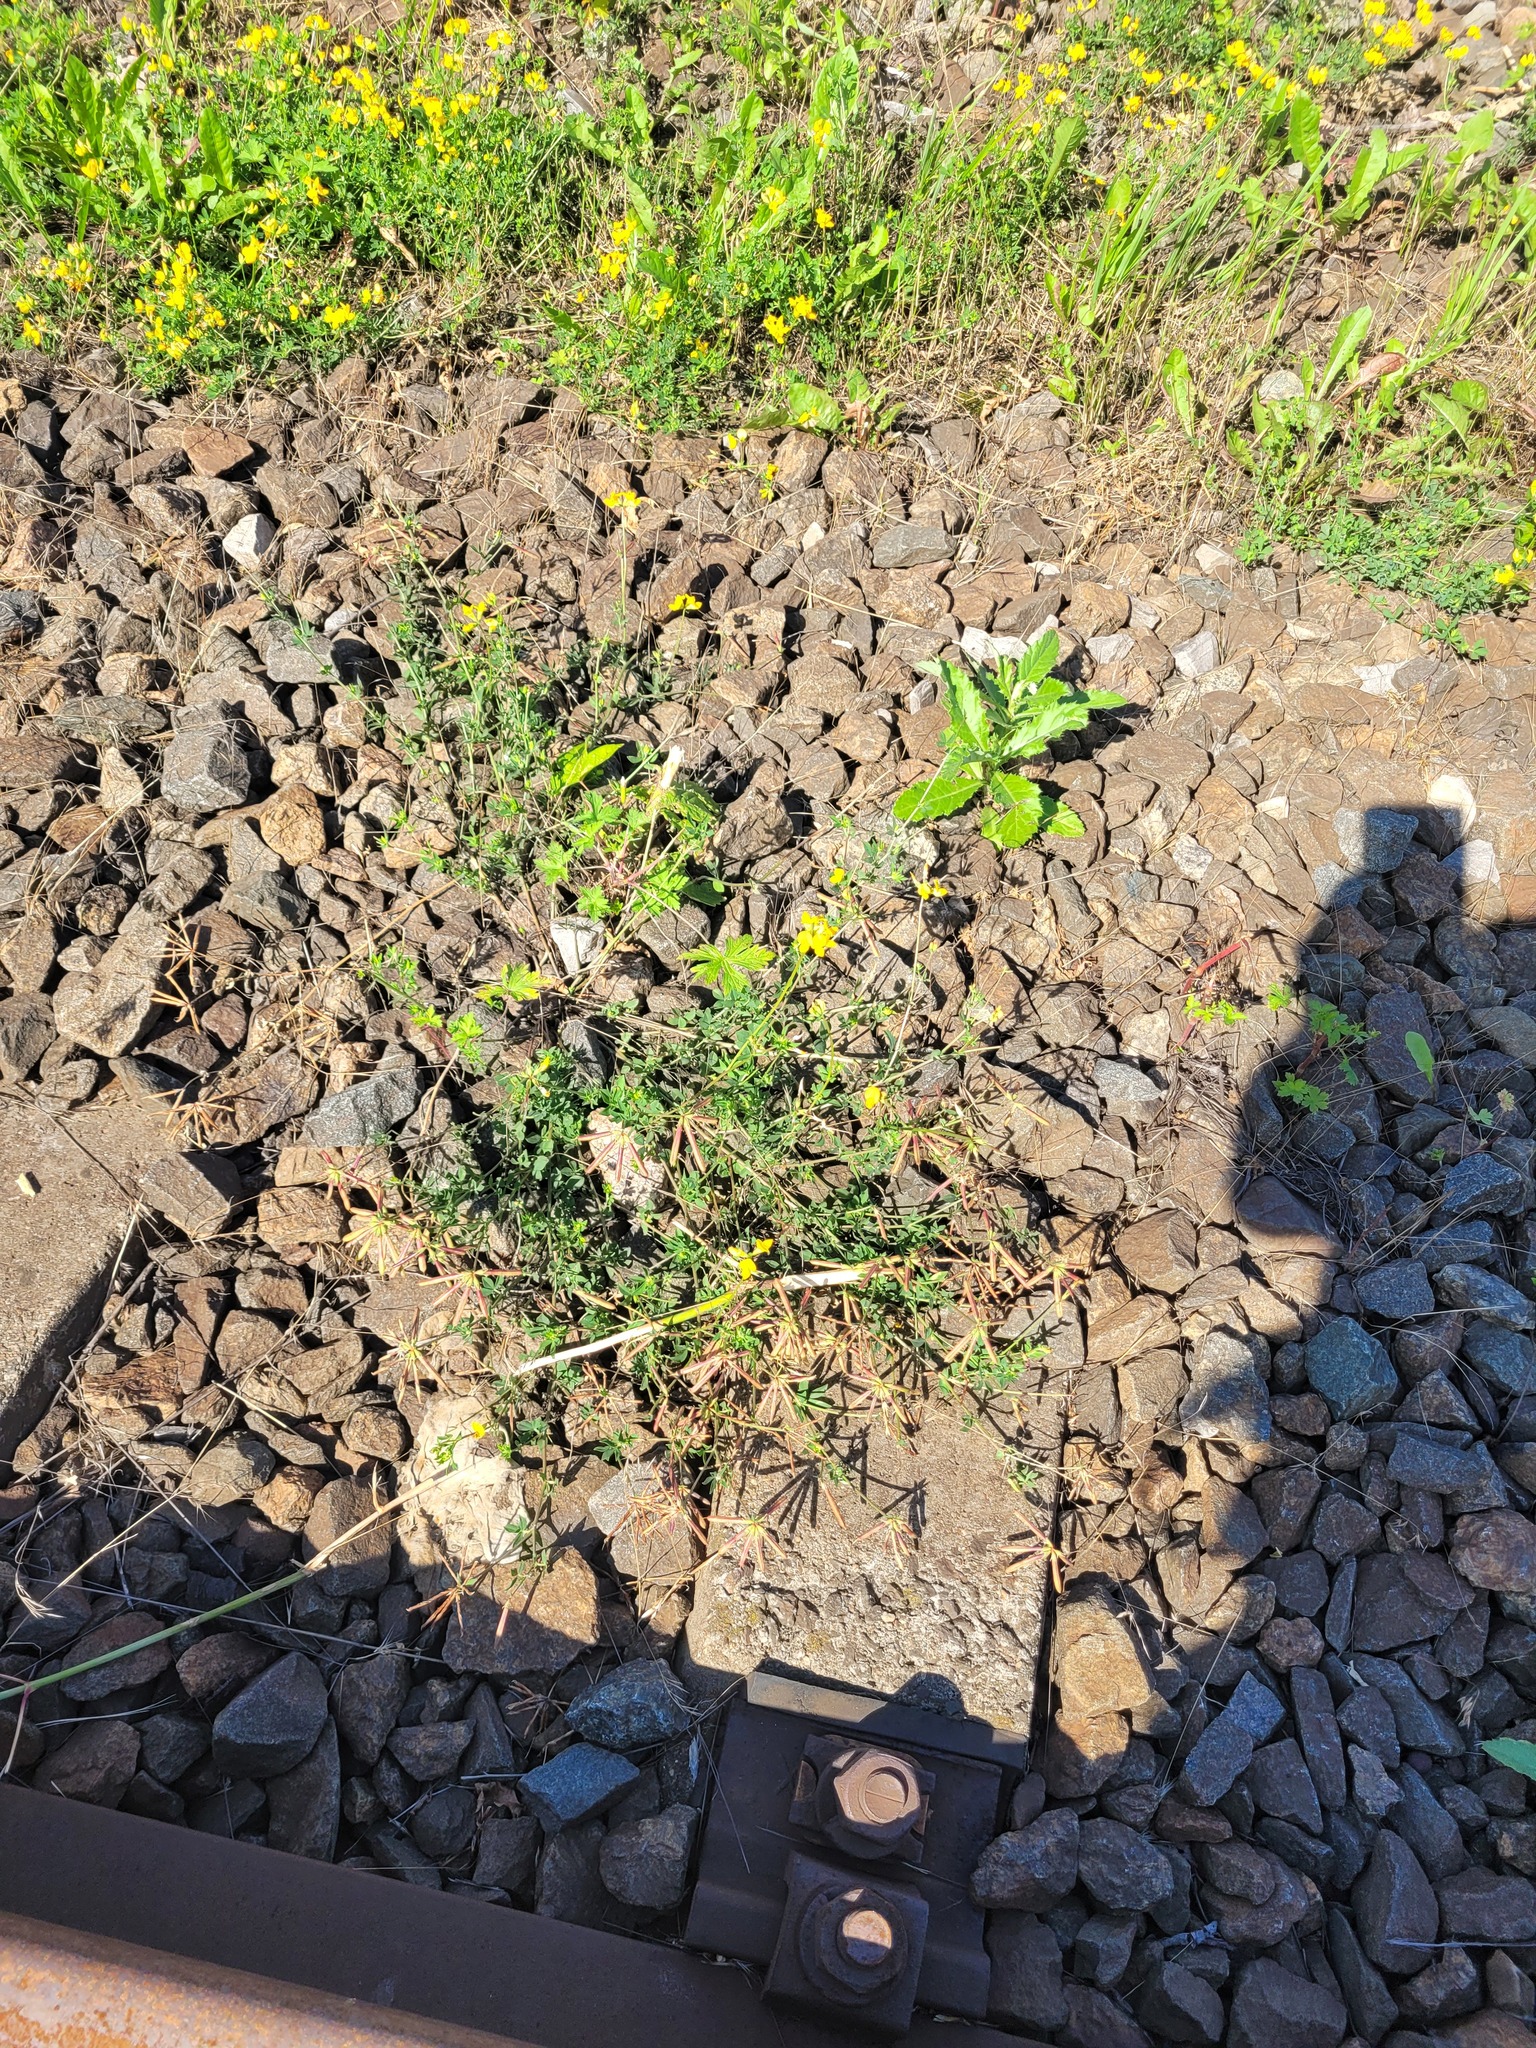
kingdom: Plantae
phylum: Tracheophyta
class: Magnoliopsida
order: Fabales
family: Fabaceae
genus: Lotus
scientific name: Lotus corniculatus
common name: Common bird's-foot-trefoil
